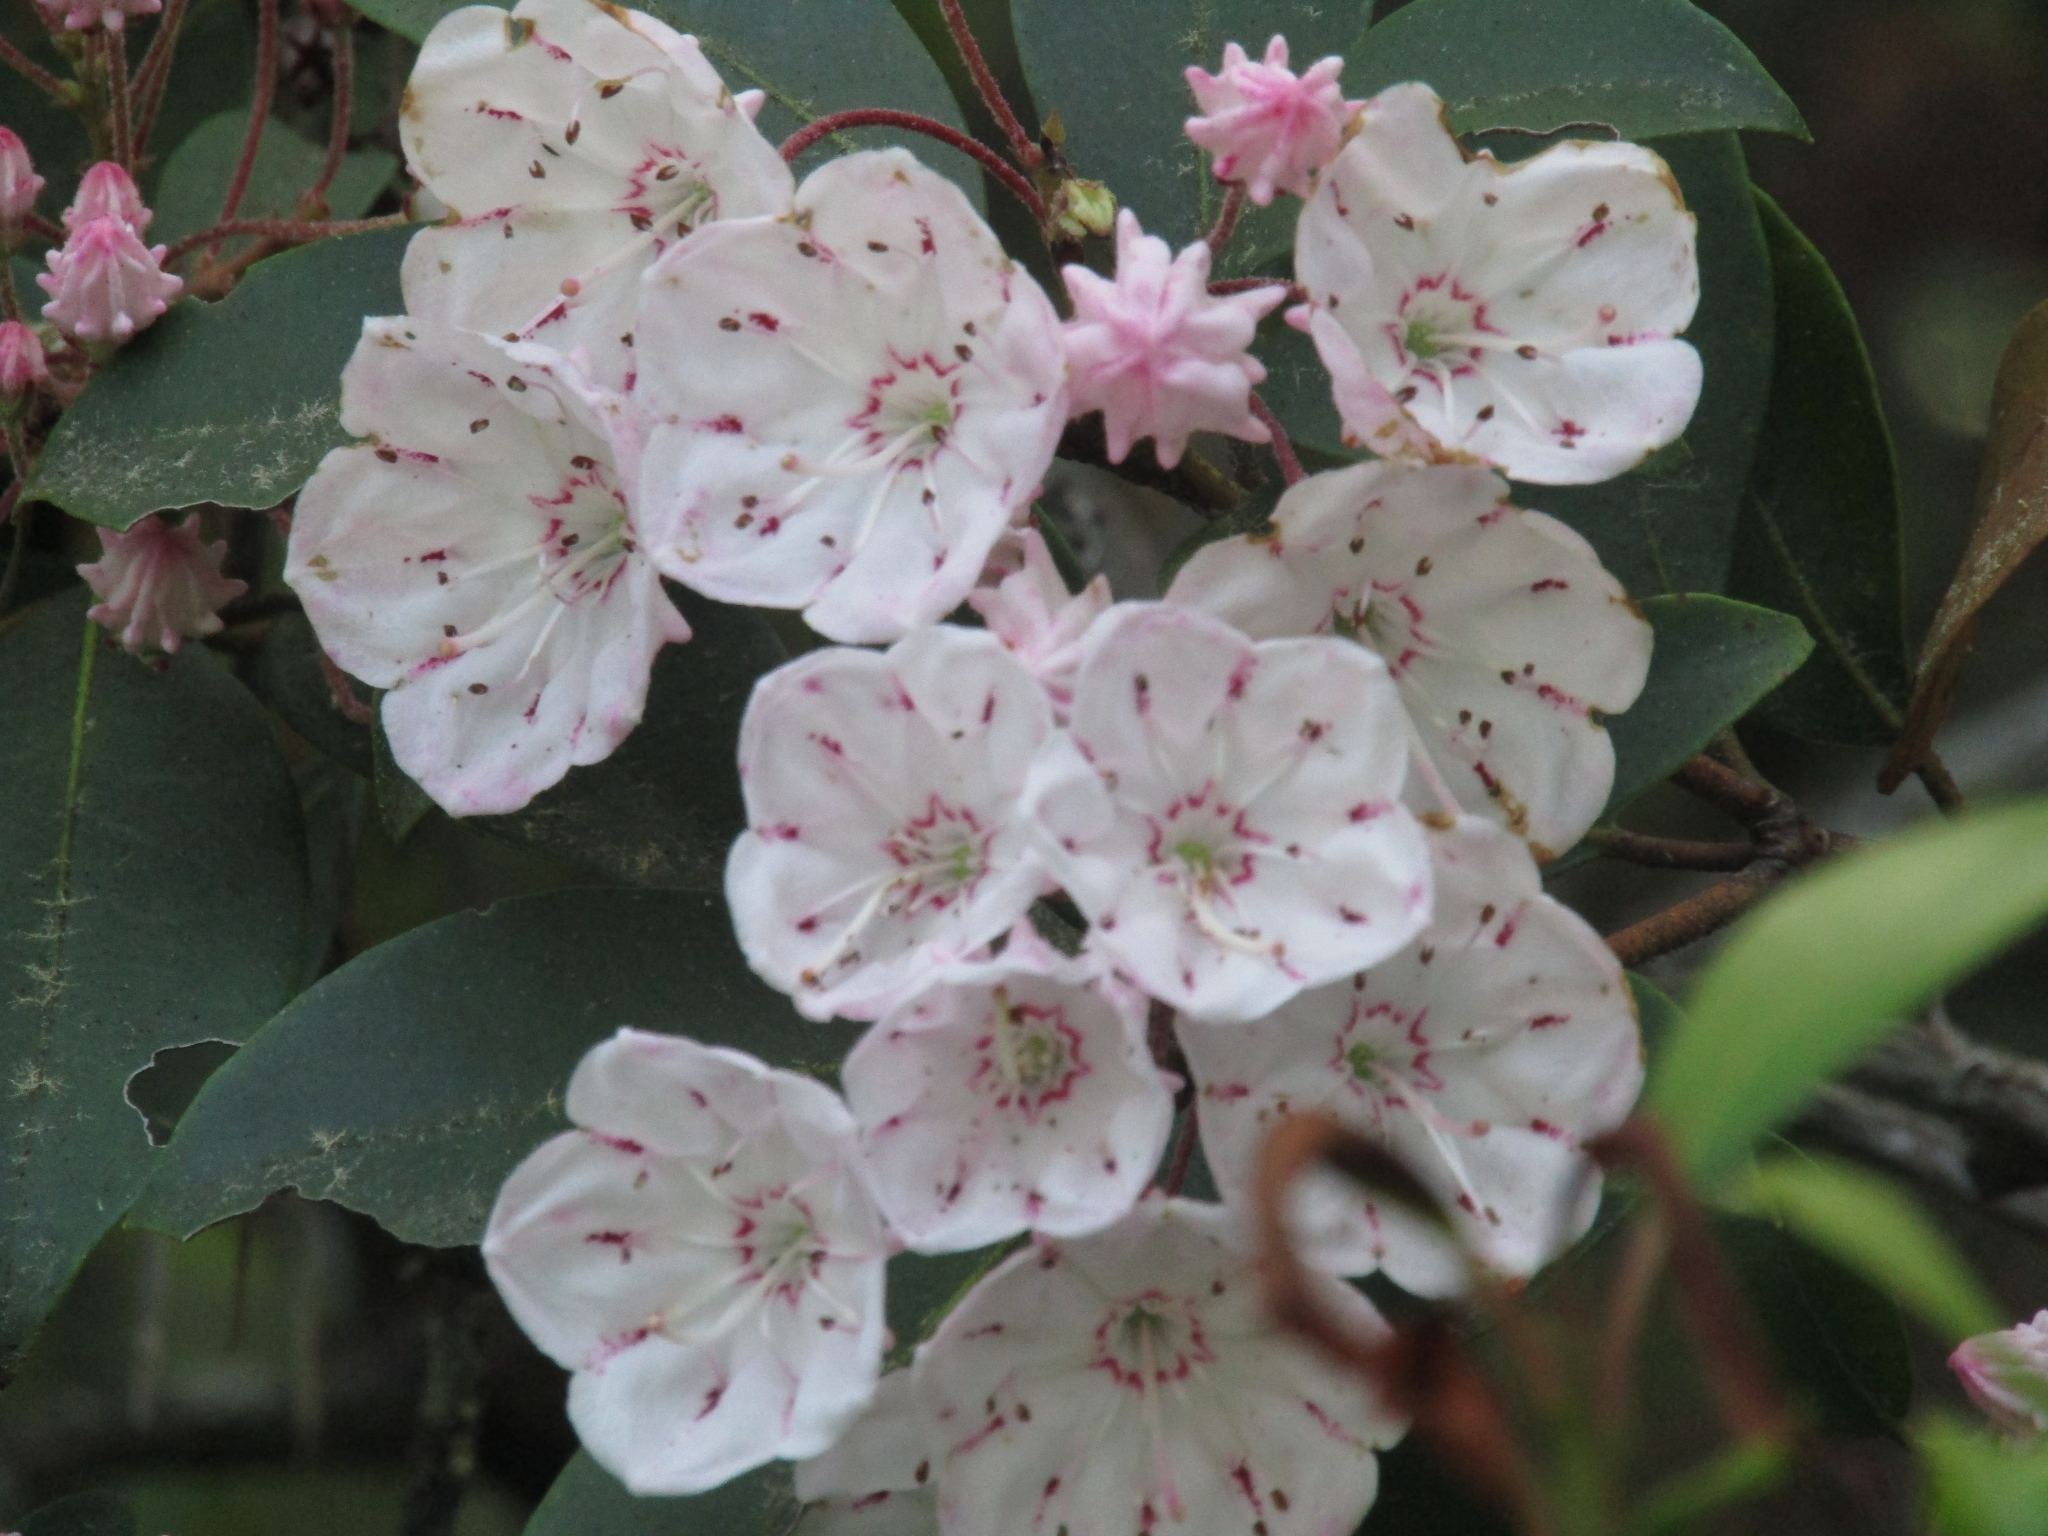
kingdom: Plantae
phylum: Tracheophyta
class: Magnoliopsida
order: Ericales
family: Ericaceae
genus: Kalmia
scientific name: Kalmia latifolia
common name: Mountain-laurel
